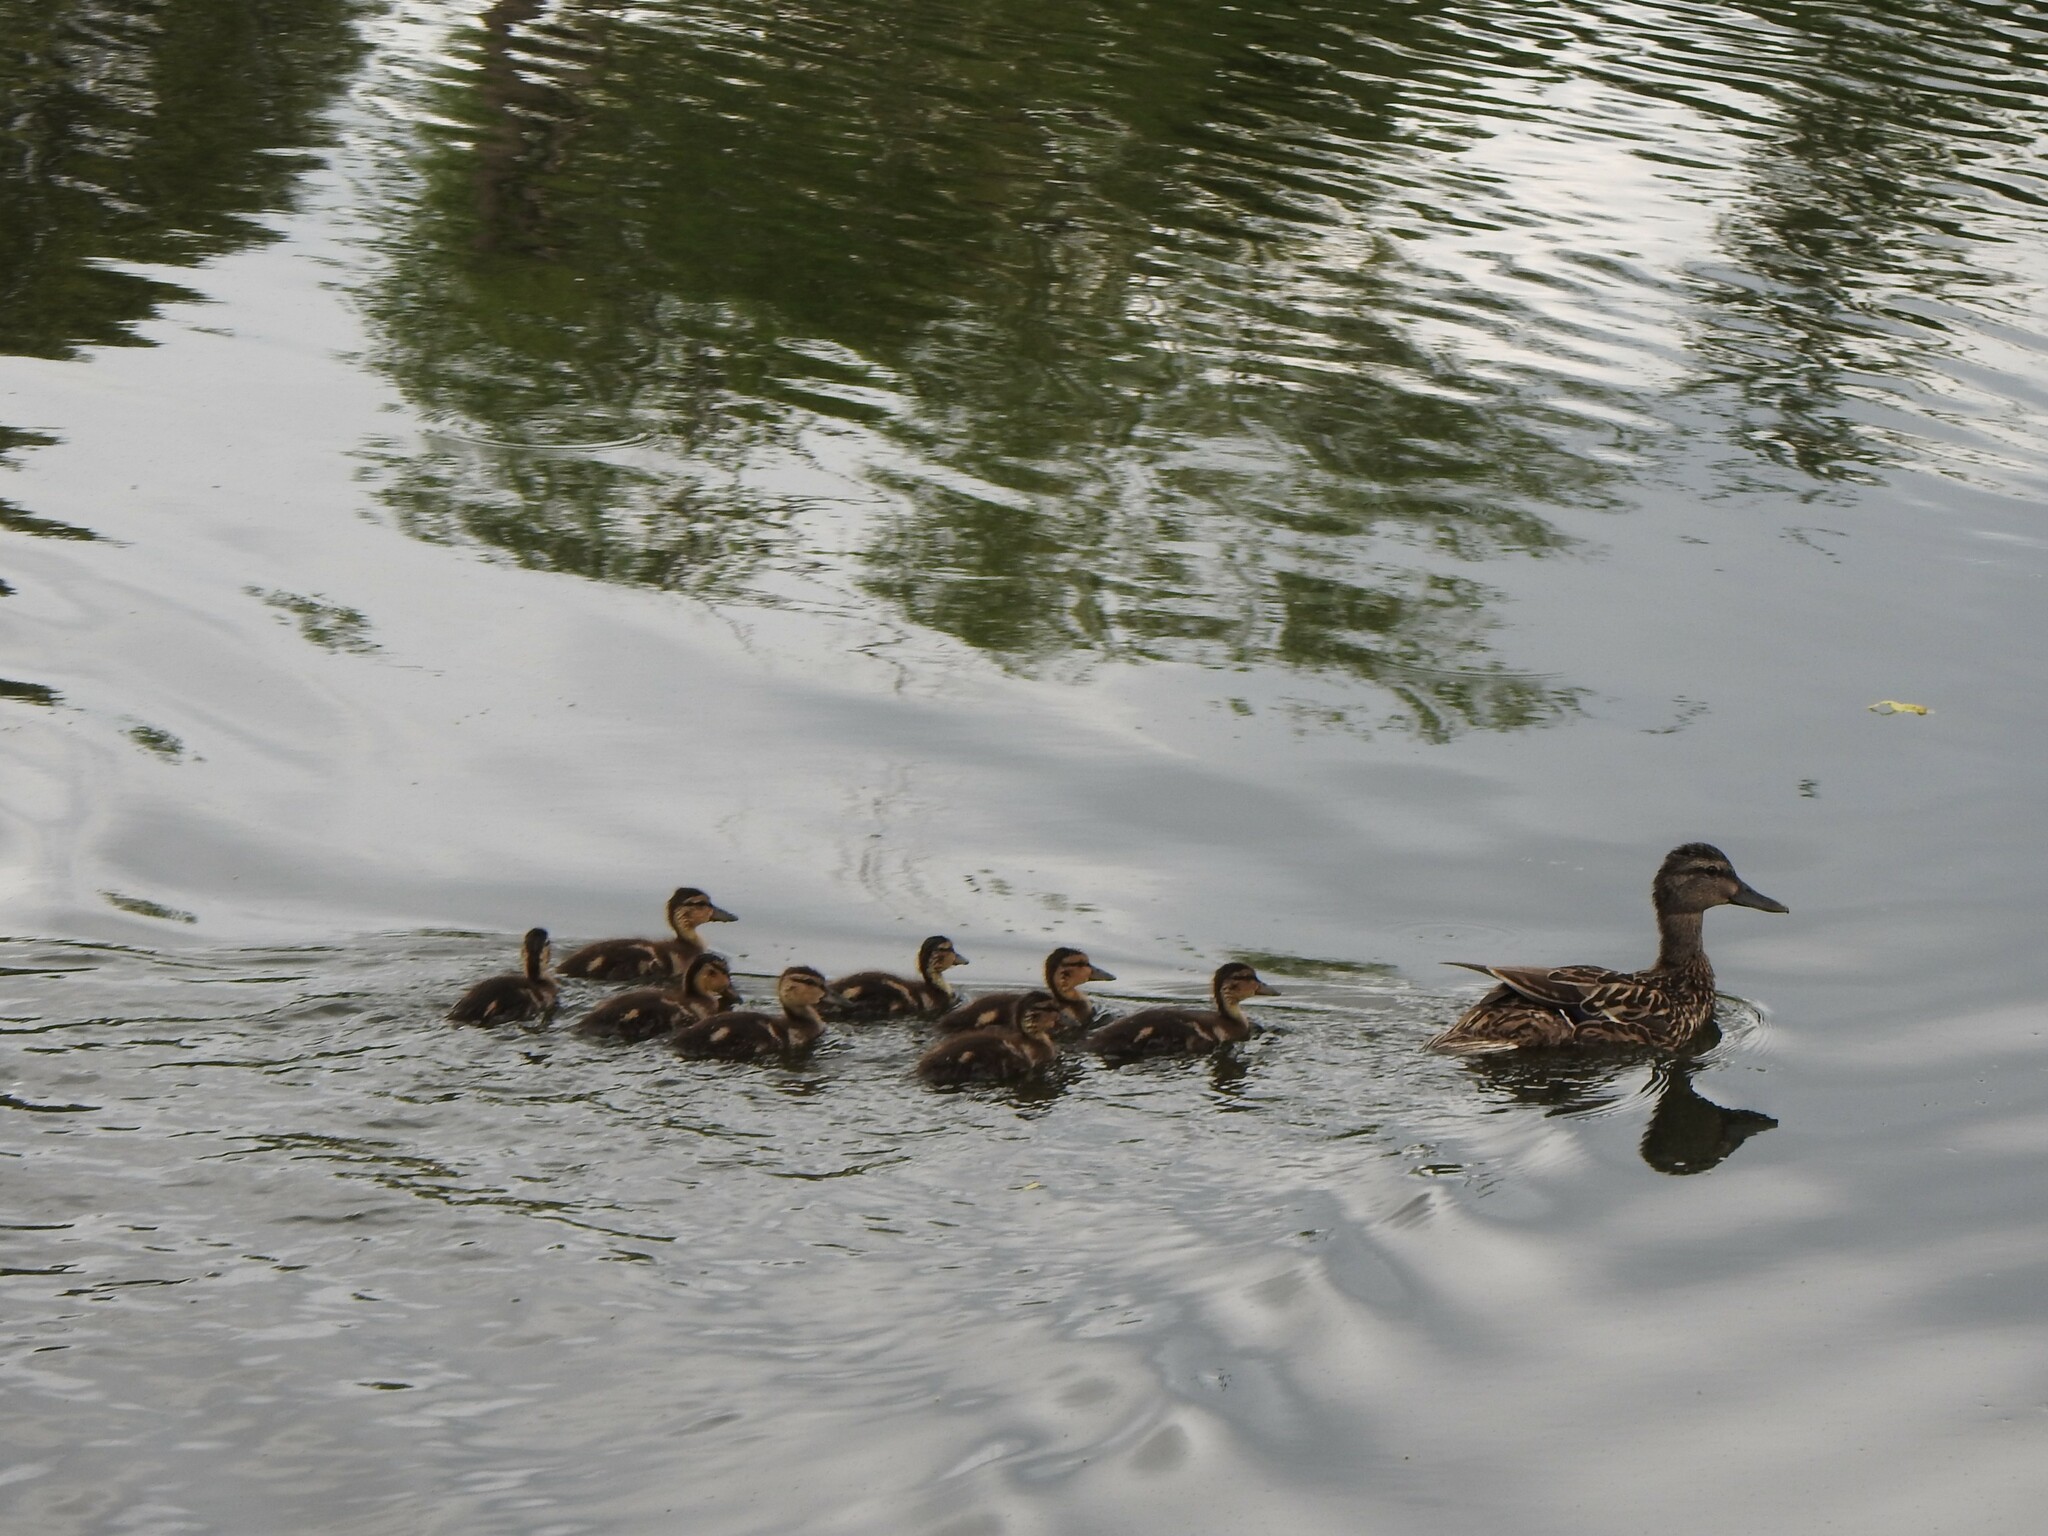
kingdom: Animalia
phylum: Chordata
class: Aves
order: Anseriformes
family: Anatidae
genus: Anas
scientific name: Anas platyrhynchos
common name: Mallard
